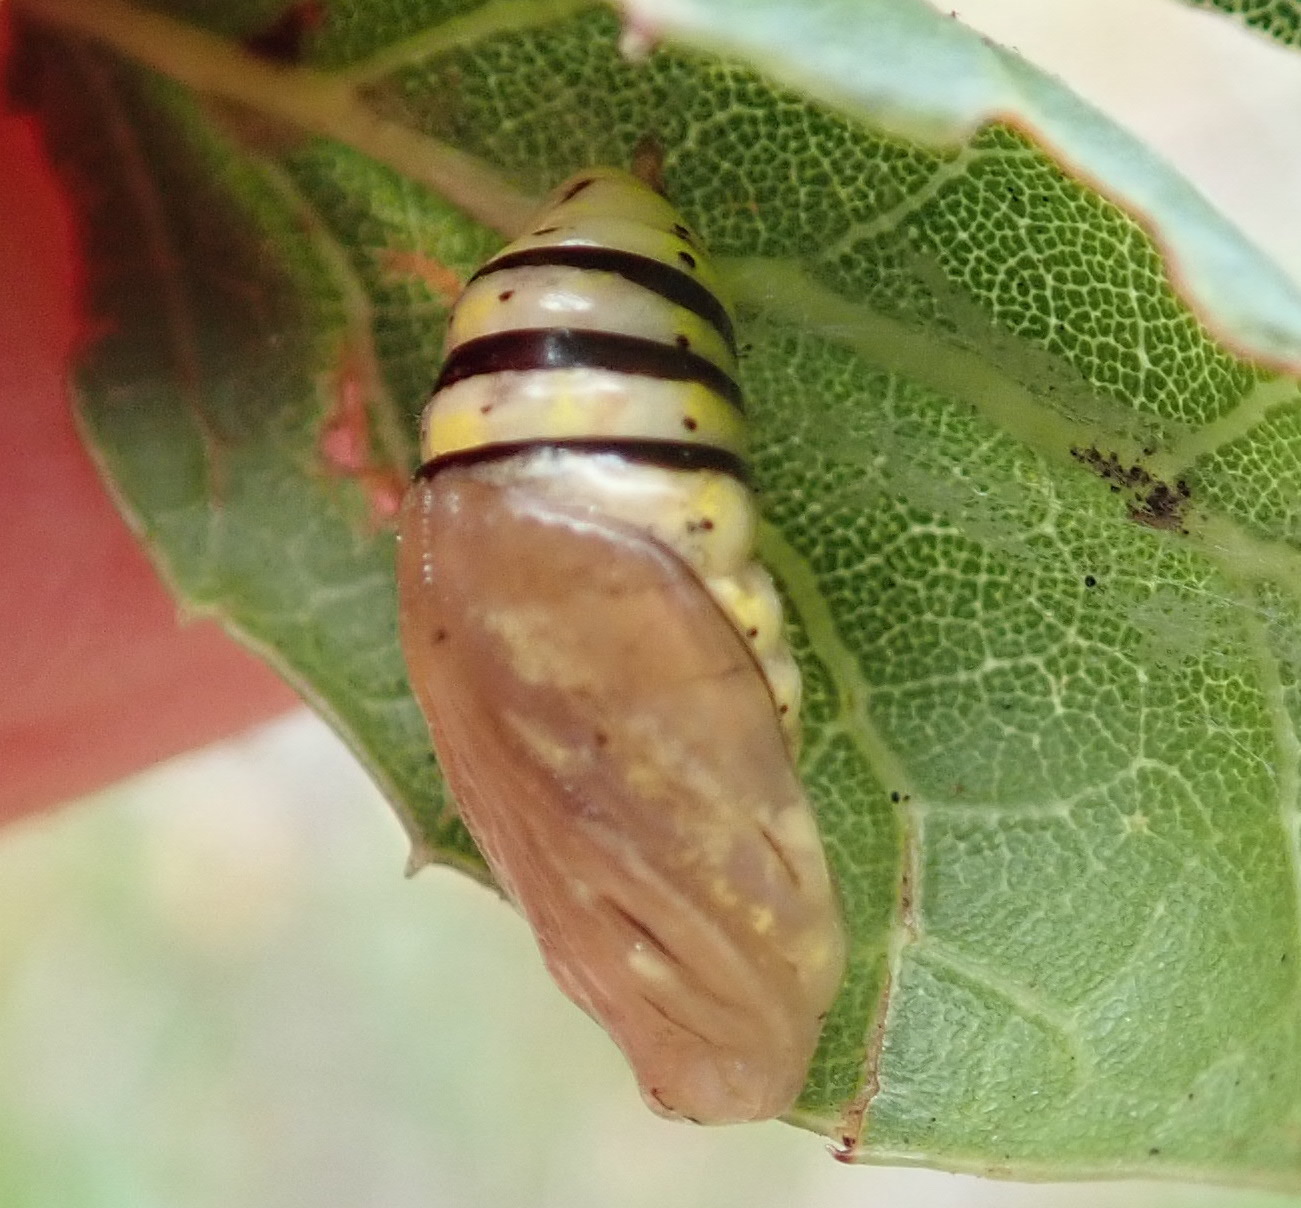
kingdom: Animalia
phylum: Arthropoda
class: Insecta
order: Lepidoptera
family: Notodontidae
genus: Phryganidia
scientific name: Phryganidia californica
